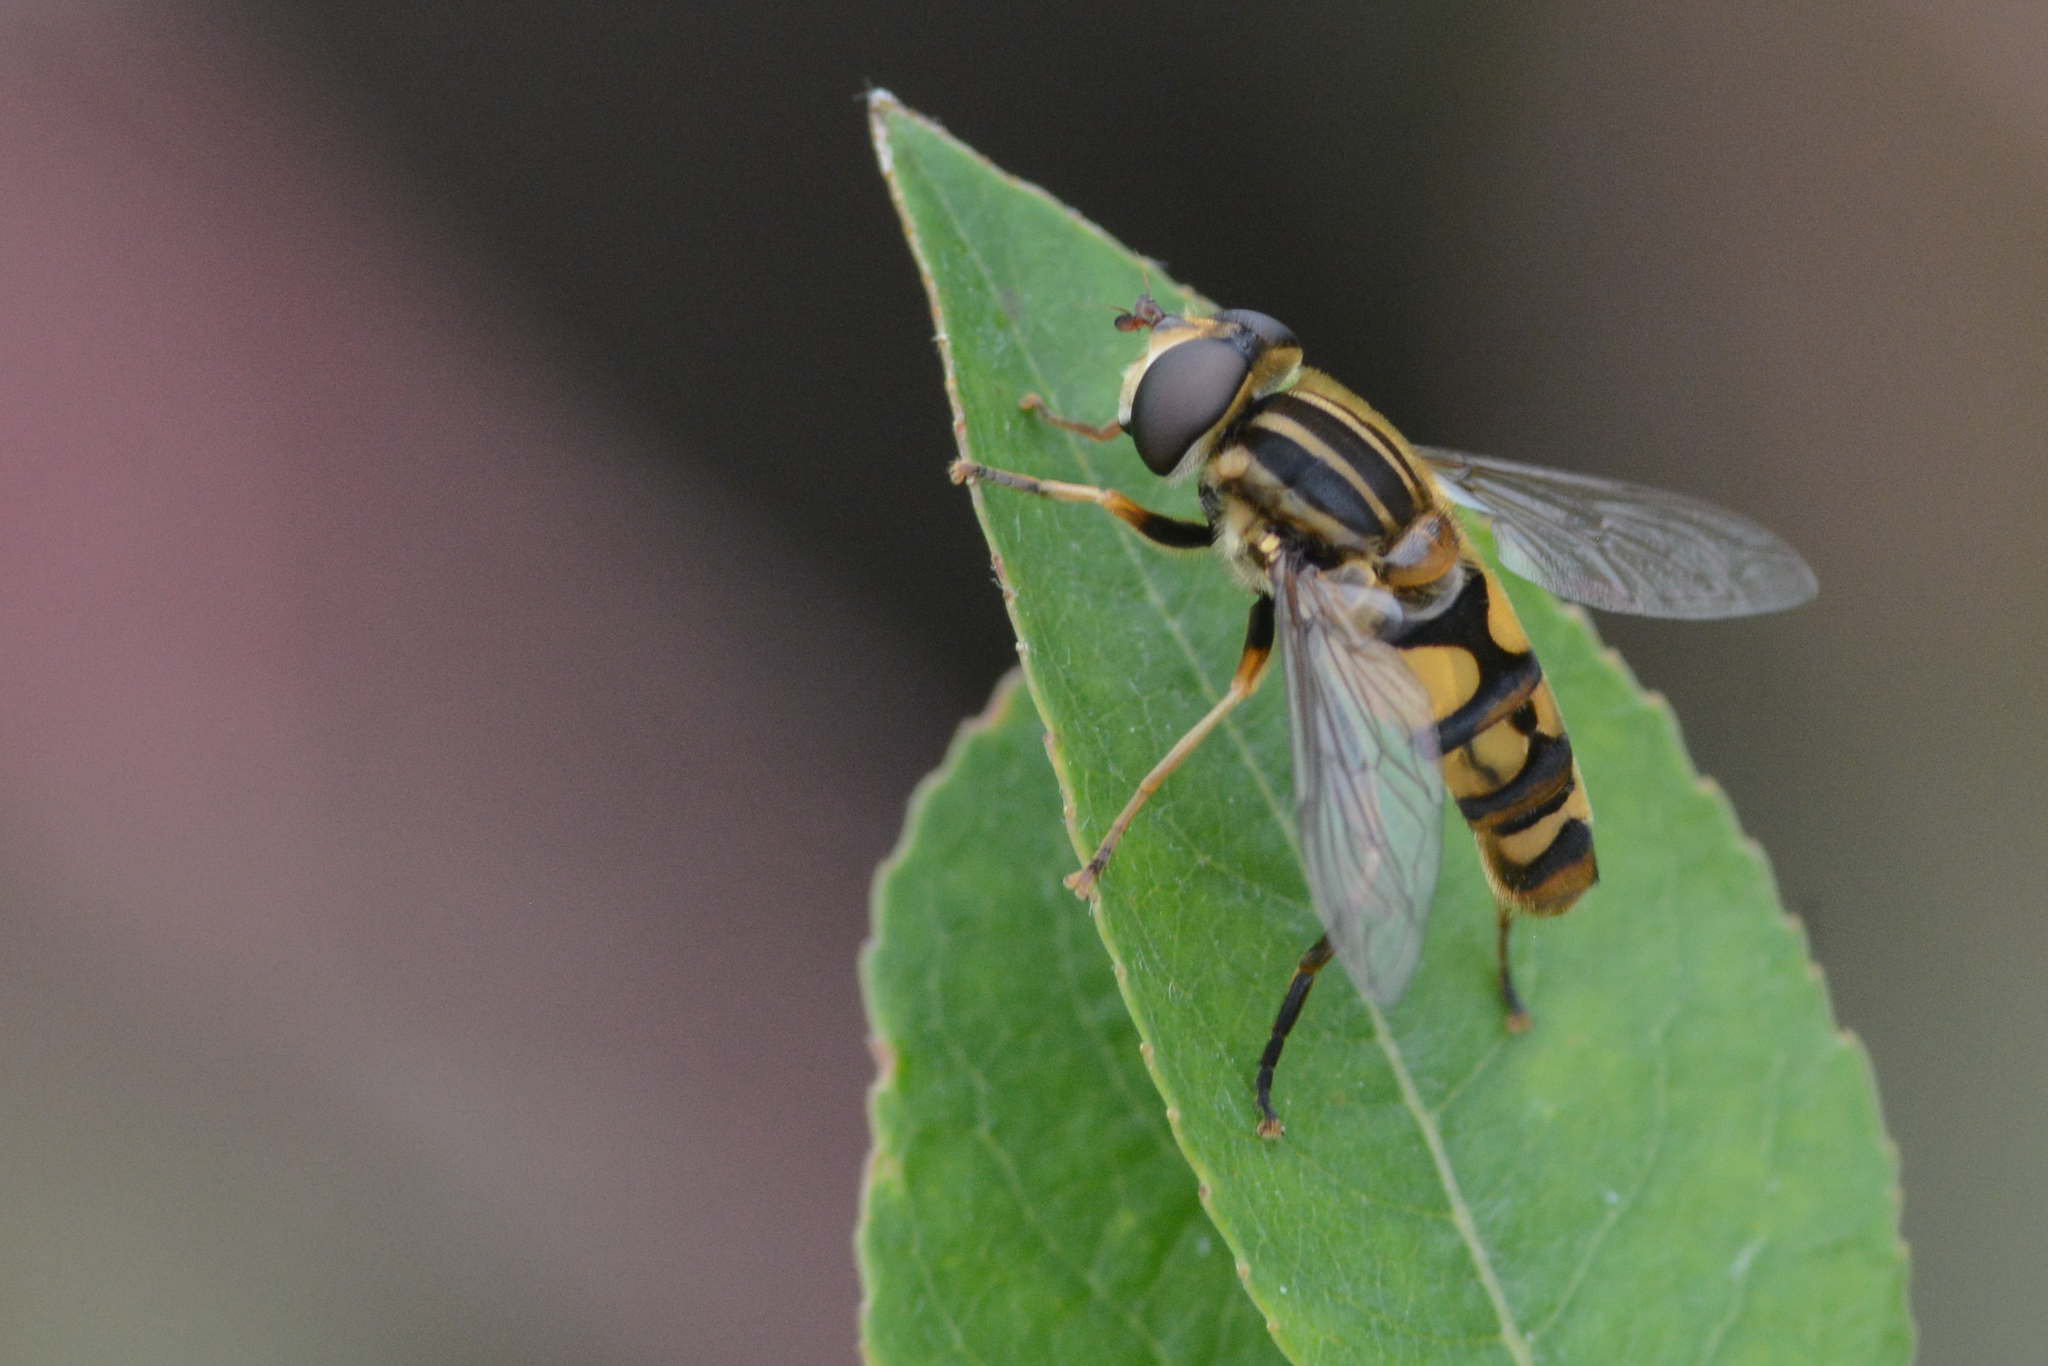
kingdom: Animalia
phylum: Arthropoda
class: Insecta
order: Diptera
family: Syrphidae
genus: Helophilus
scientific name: Helophilus fasciatus
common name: Narrow-headed marsh fly
